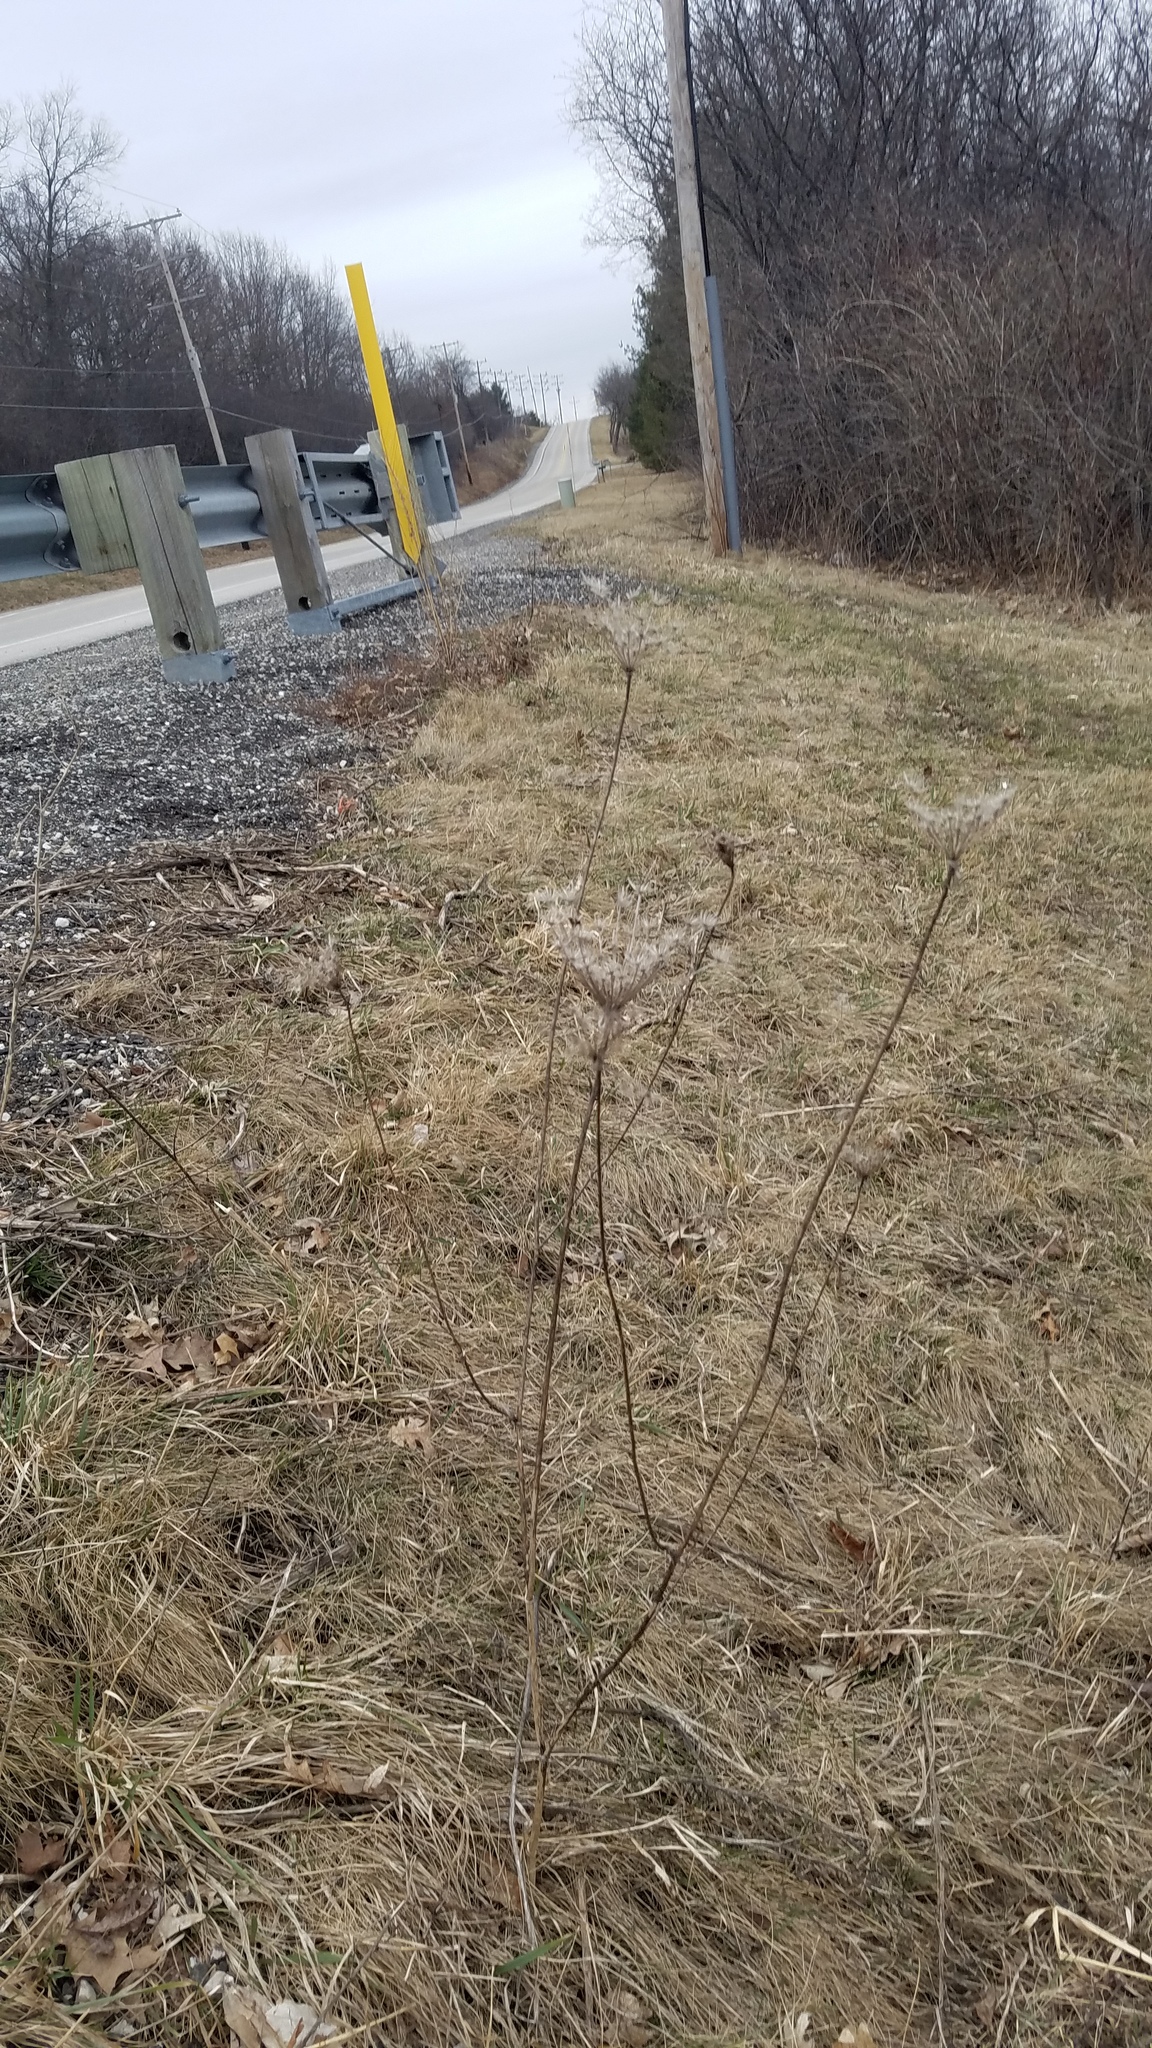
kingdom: Plantae
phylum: Tracheophyta
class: Magnoliopsida
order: Apiales
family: Apiaceae
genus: Daucus
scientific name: Daucus carota
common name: Wild carrot
